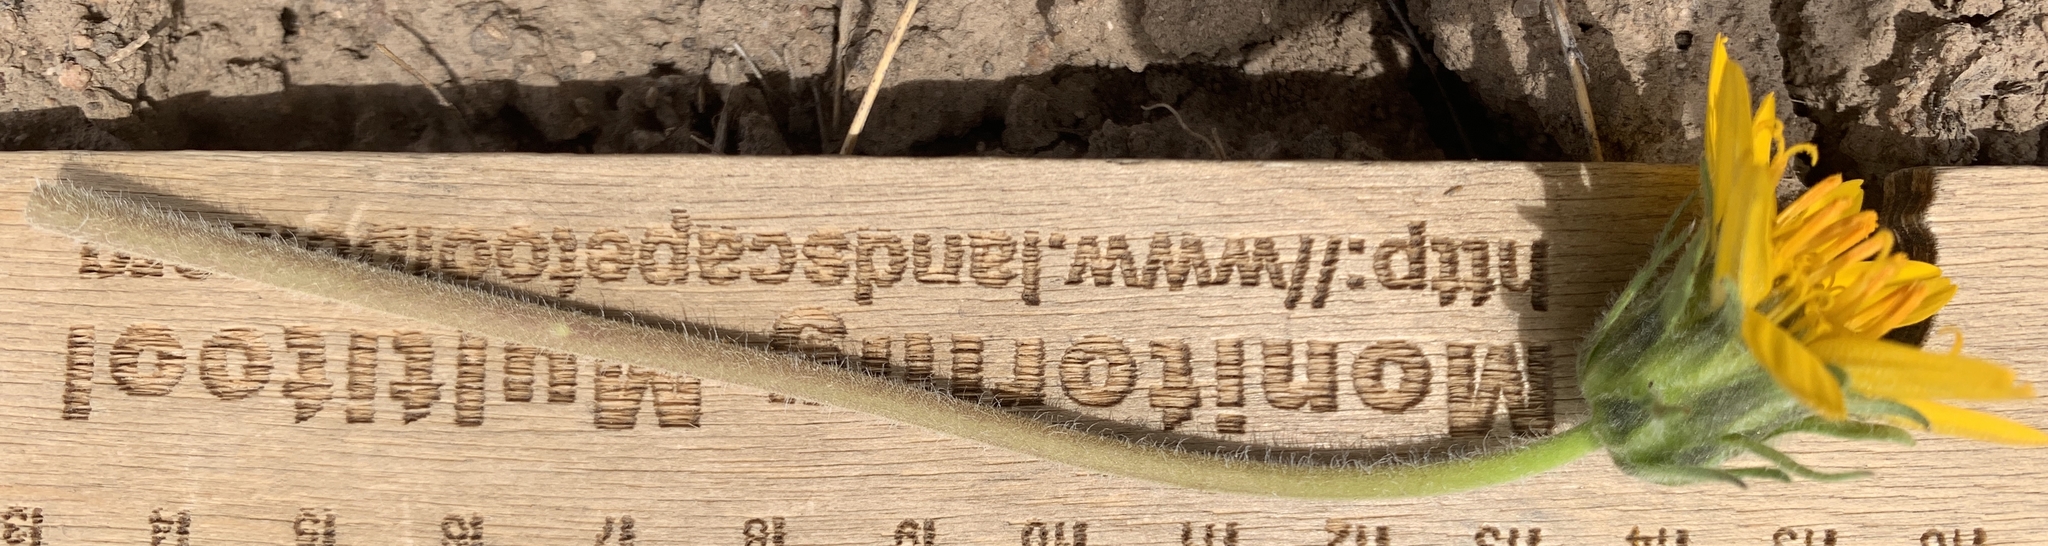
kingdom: Plantae
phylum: Tracheophyta
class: Magnoliopsida
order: Asterales
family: Asteraceae
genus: Balsamorhiza
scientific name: Balsamorhiza hookeri
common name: Hooker's balsamroot
